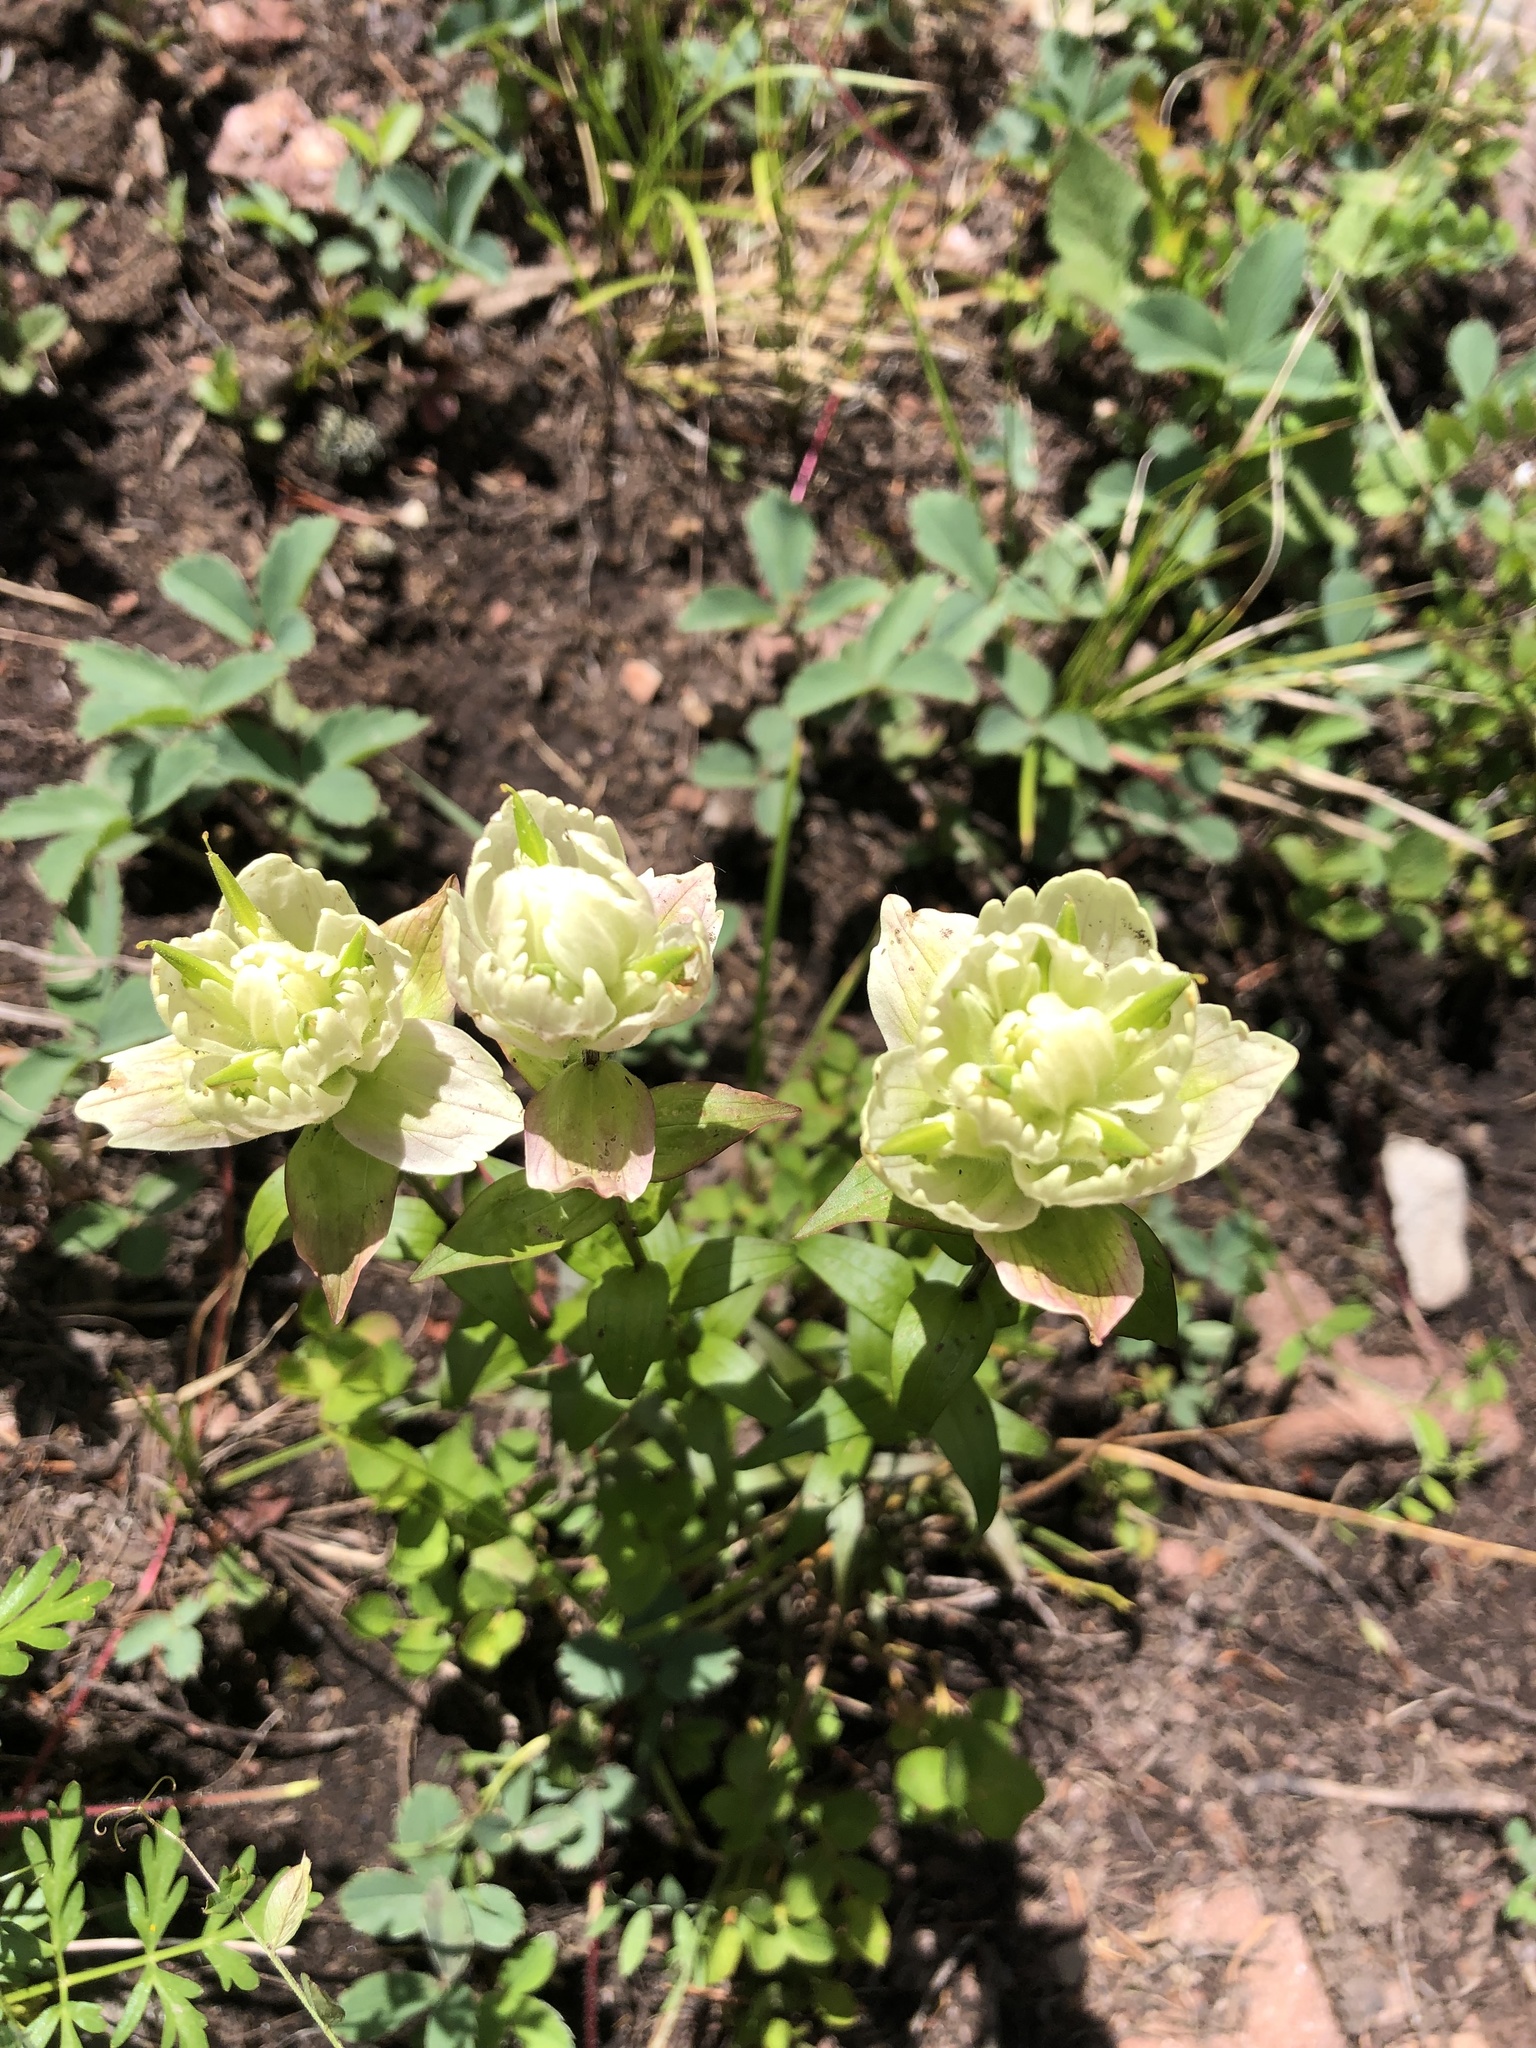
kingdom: Plantae
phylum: Tracheophyta
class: Magnoliopsida
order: Lamiales
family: Orobanchaceae
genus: Castilleja
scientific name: Castilleja occidentalis
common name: Western paintbrush
